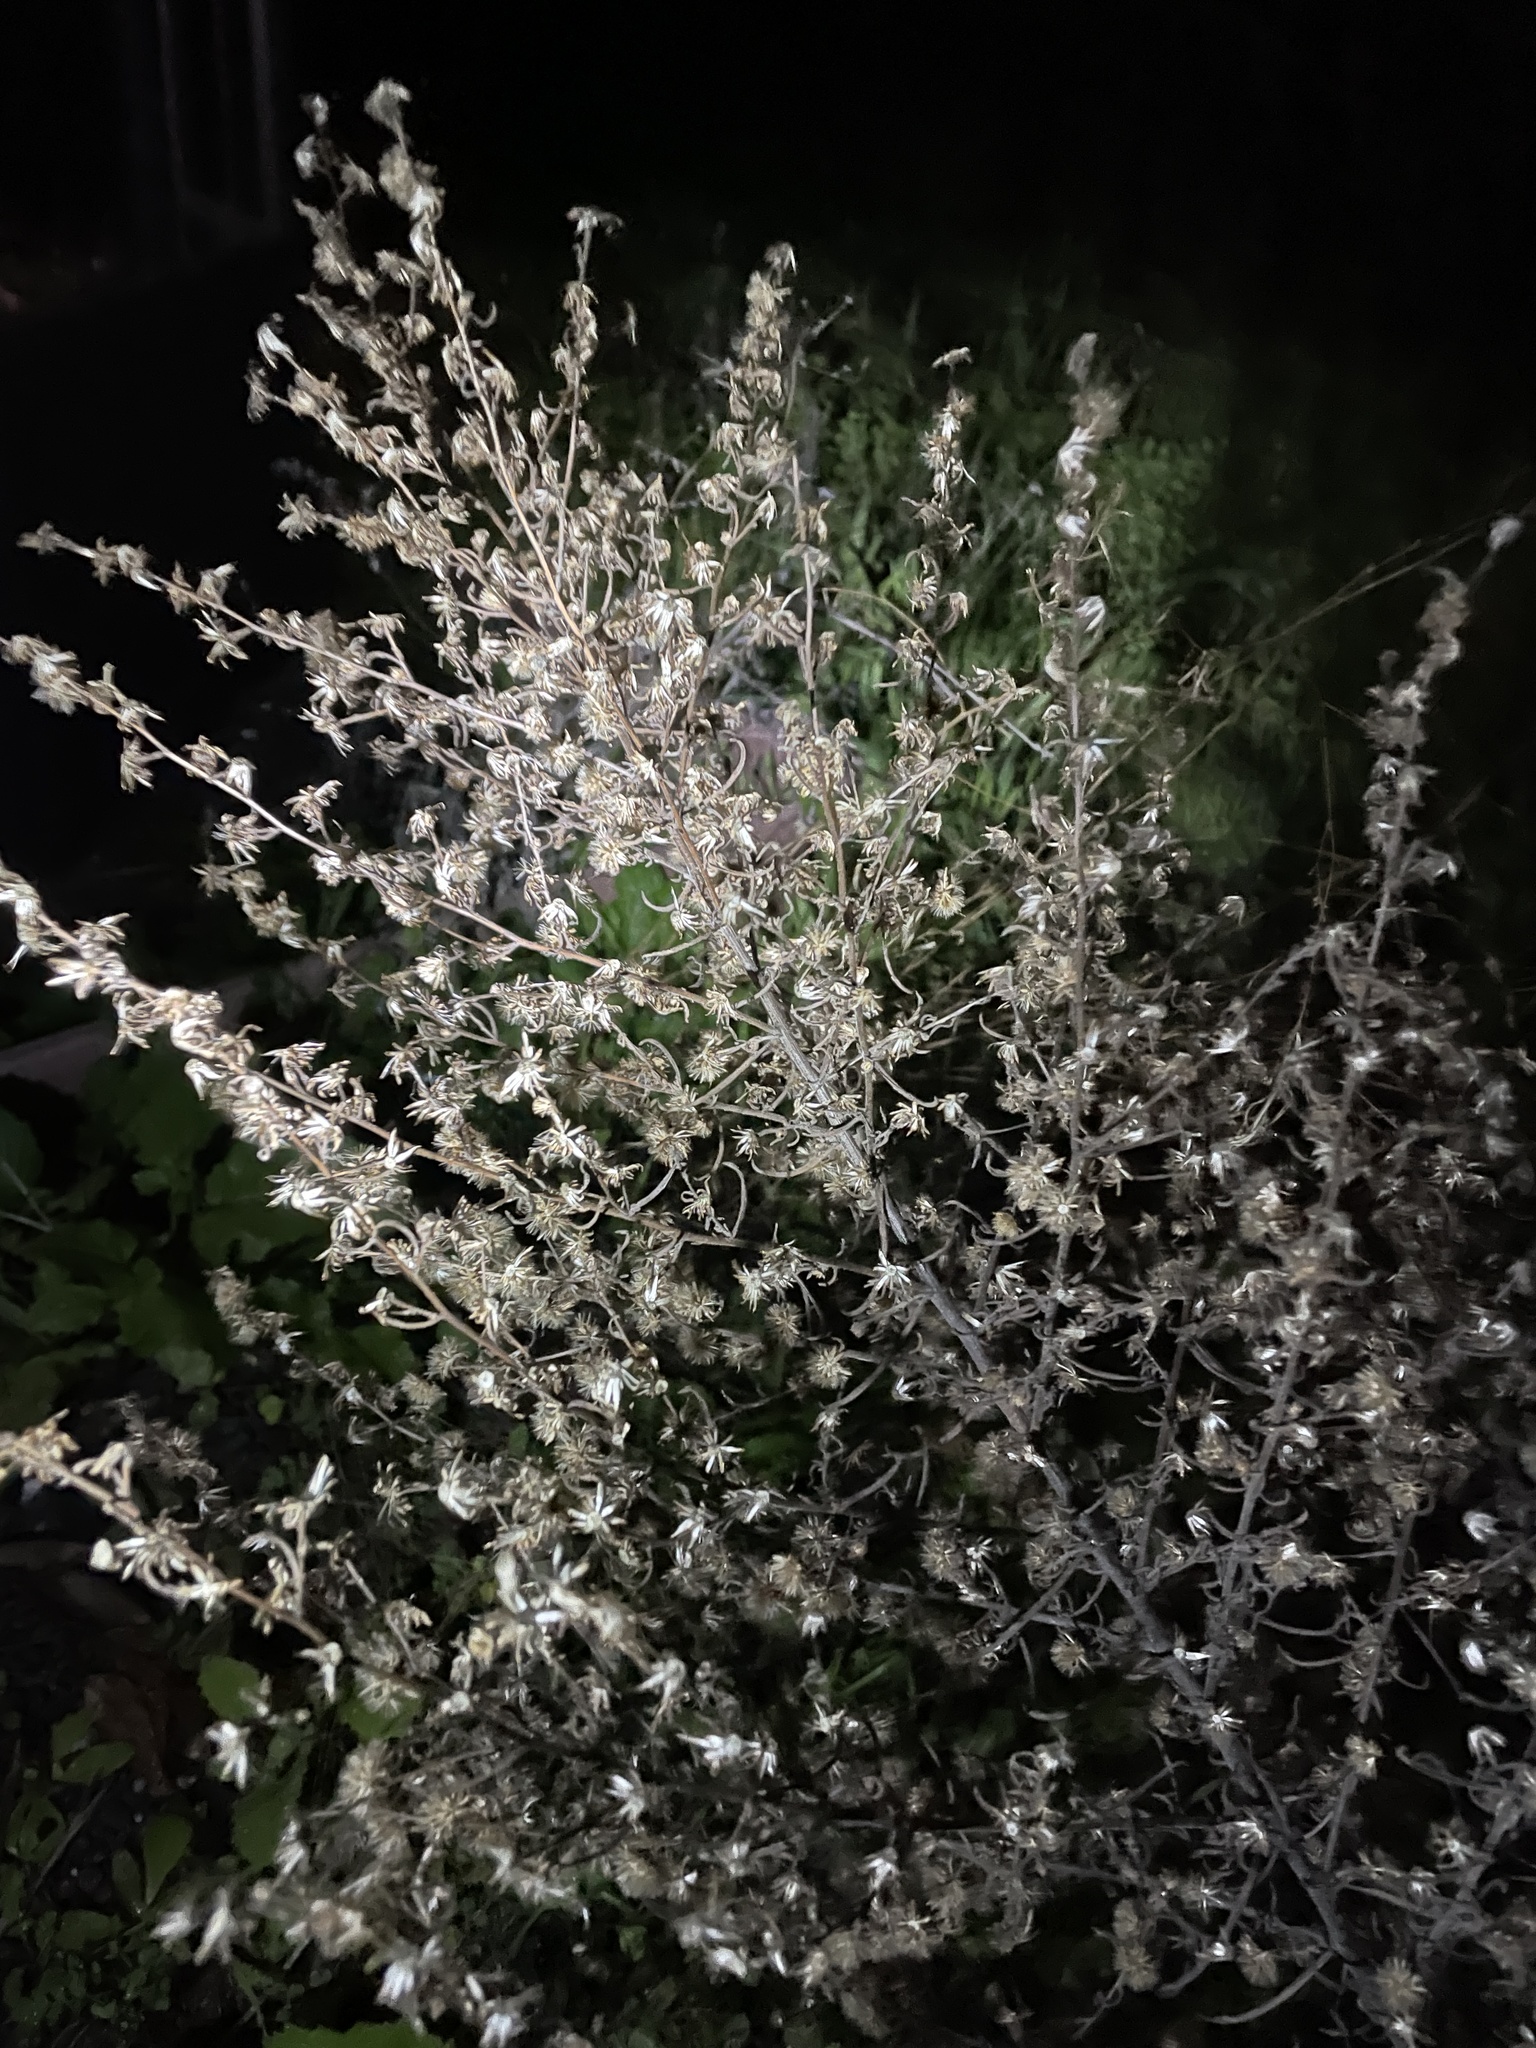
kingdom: Plantae
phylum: Tracheophyta
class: Magnoliopsida
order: Asterales
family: Asteraceae
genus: Dittrichia
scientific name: Dittrichia graveolens
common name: Stinking fleabane
